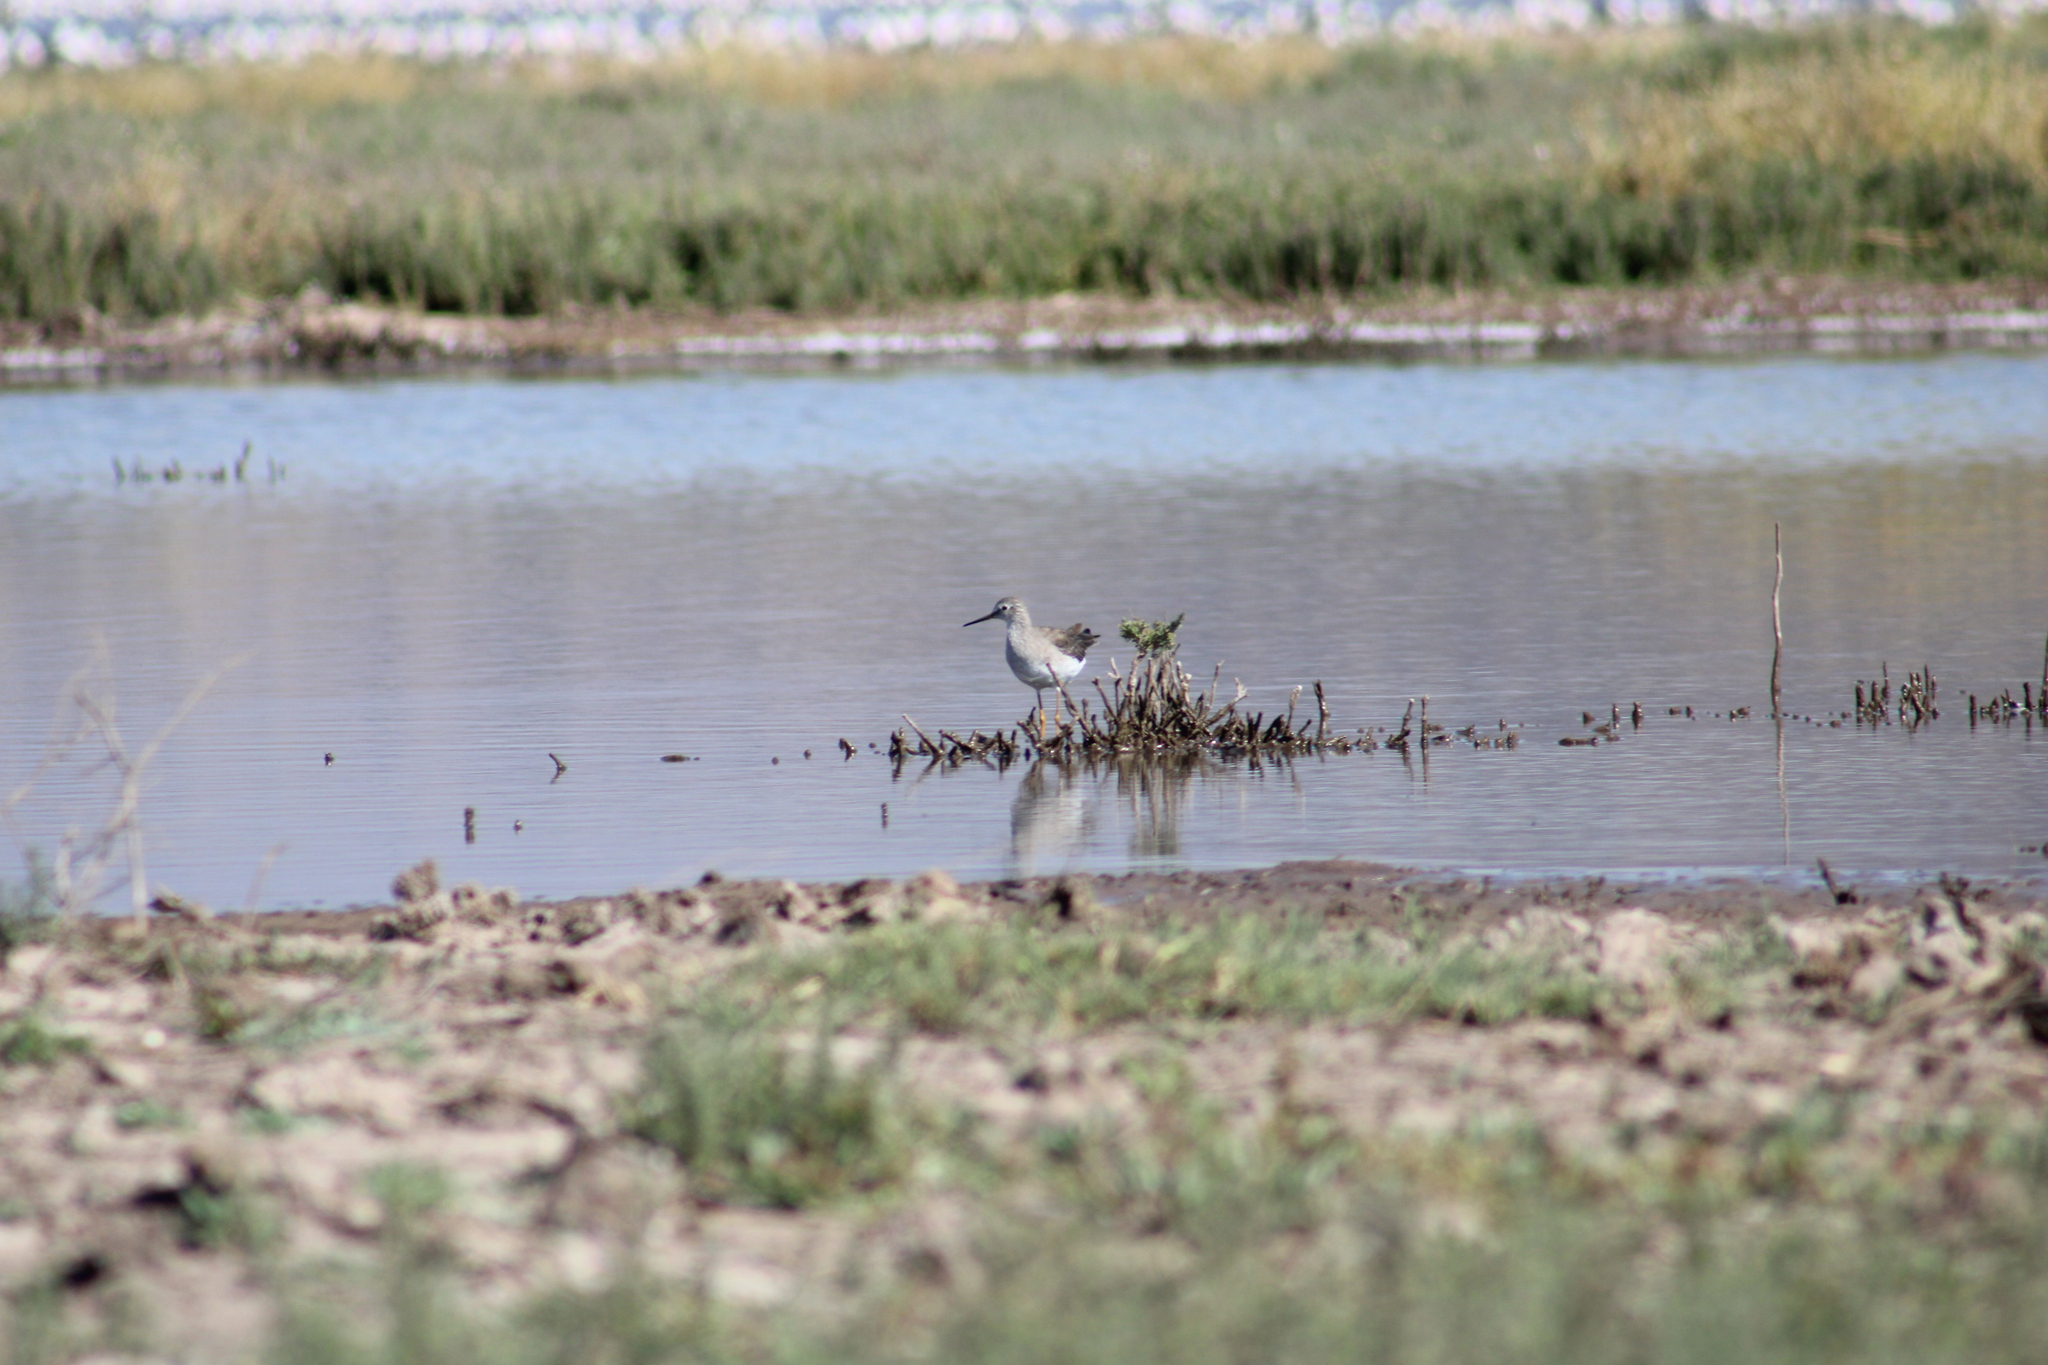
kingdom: Animalia
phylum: Chordata
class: Aves
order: Charadriiformes
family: Scolopacidae
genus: Tringa
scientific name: Tringa melanoleuca
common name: Greater yellowlegs
